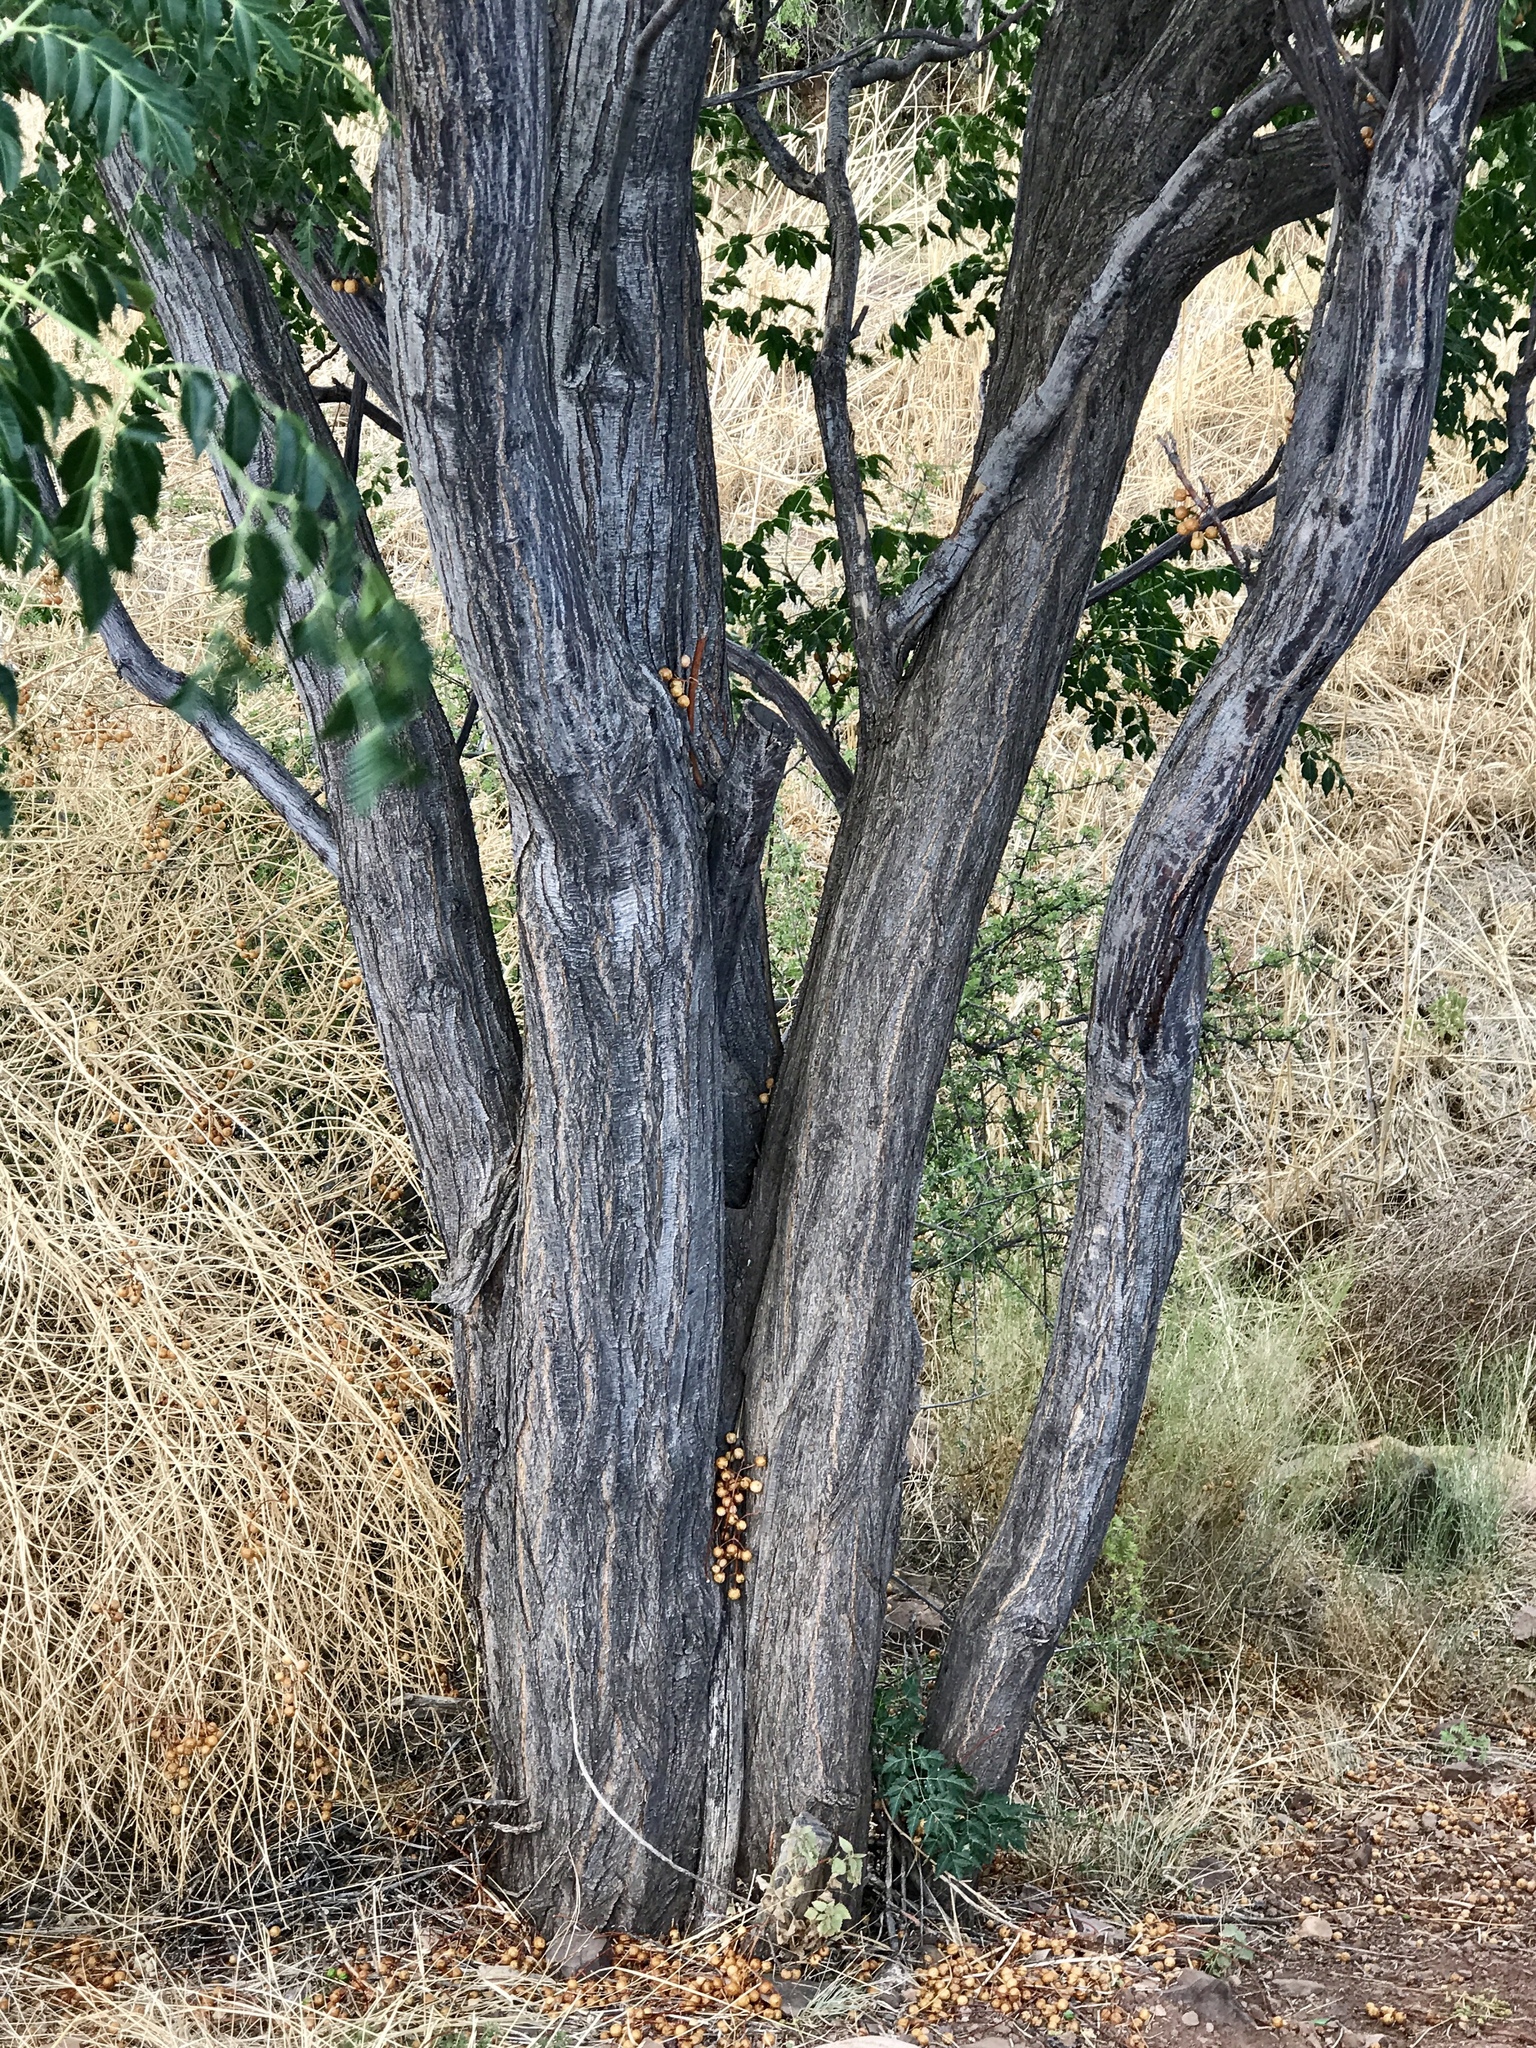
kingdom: Plantae
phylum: Tracheophyta
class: Magnoliopsida
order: Sapindales
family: Meliaceae
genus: Melia
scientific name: Melia azedarach
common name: Chinaberrytree
